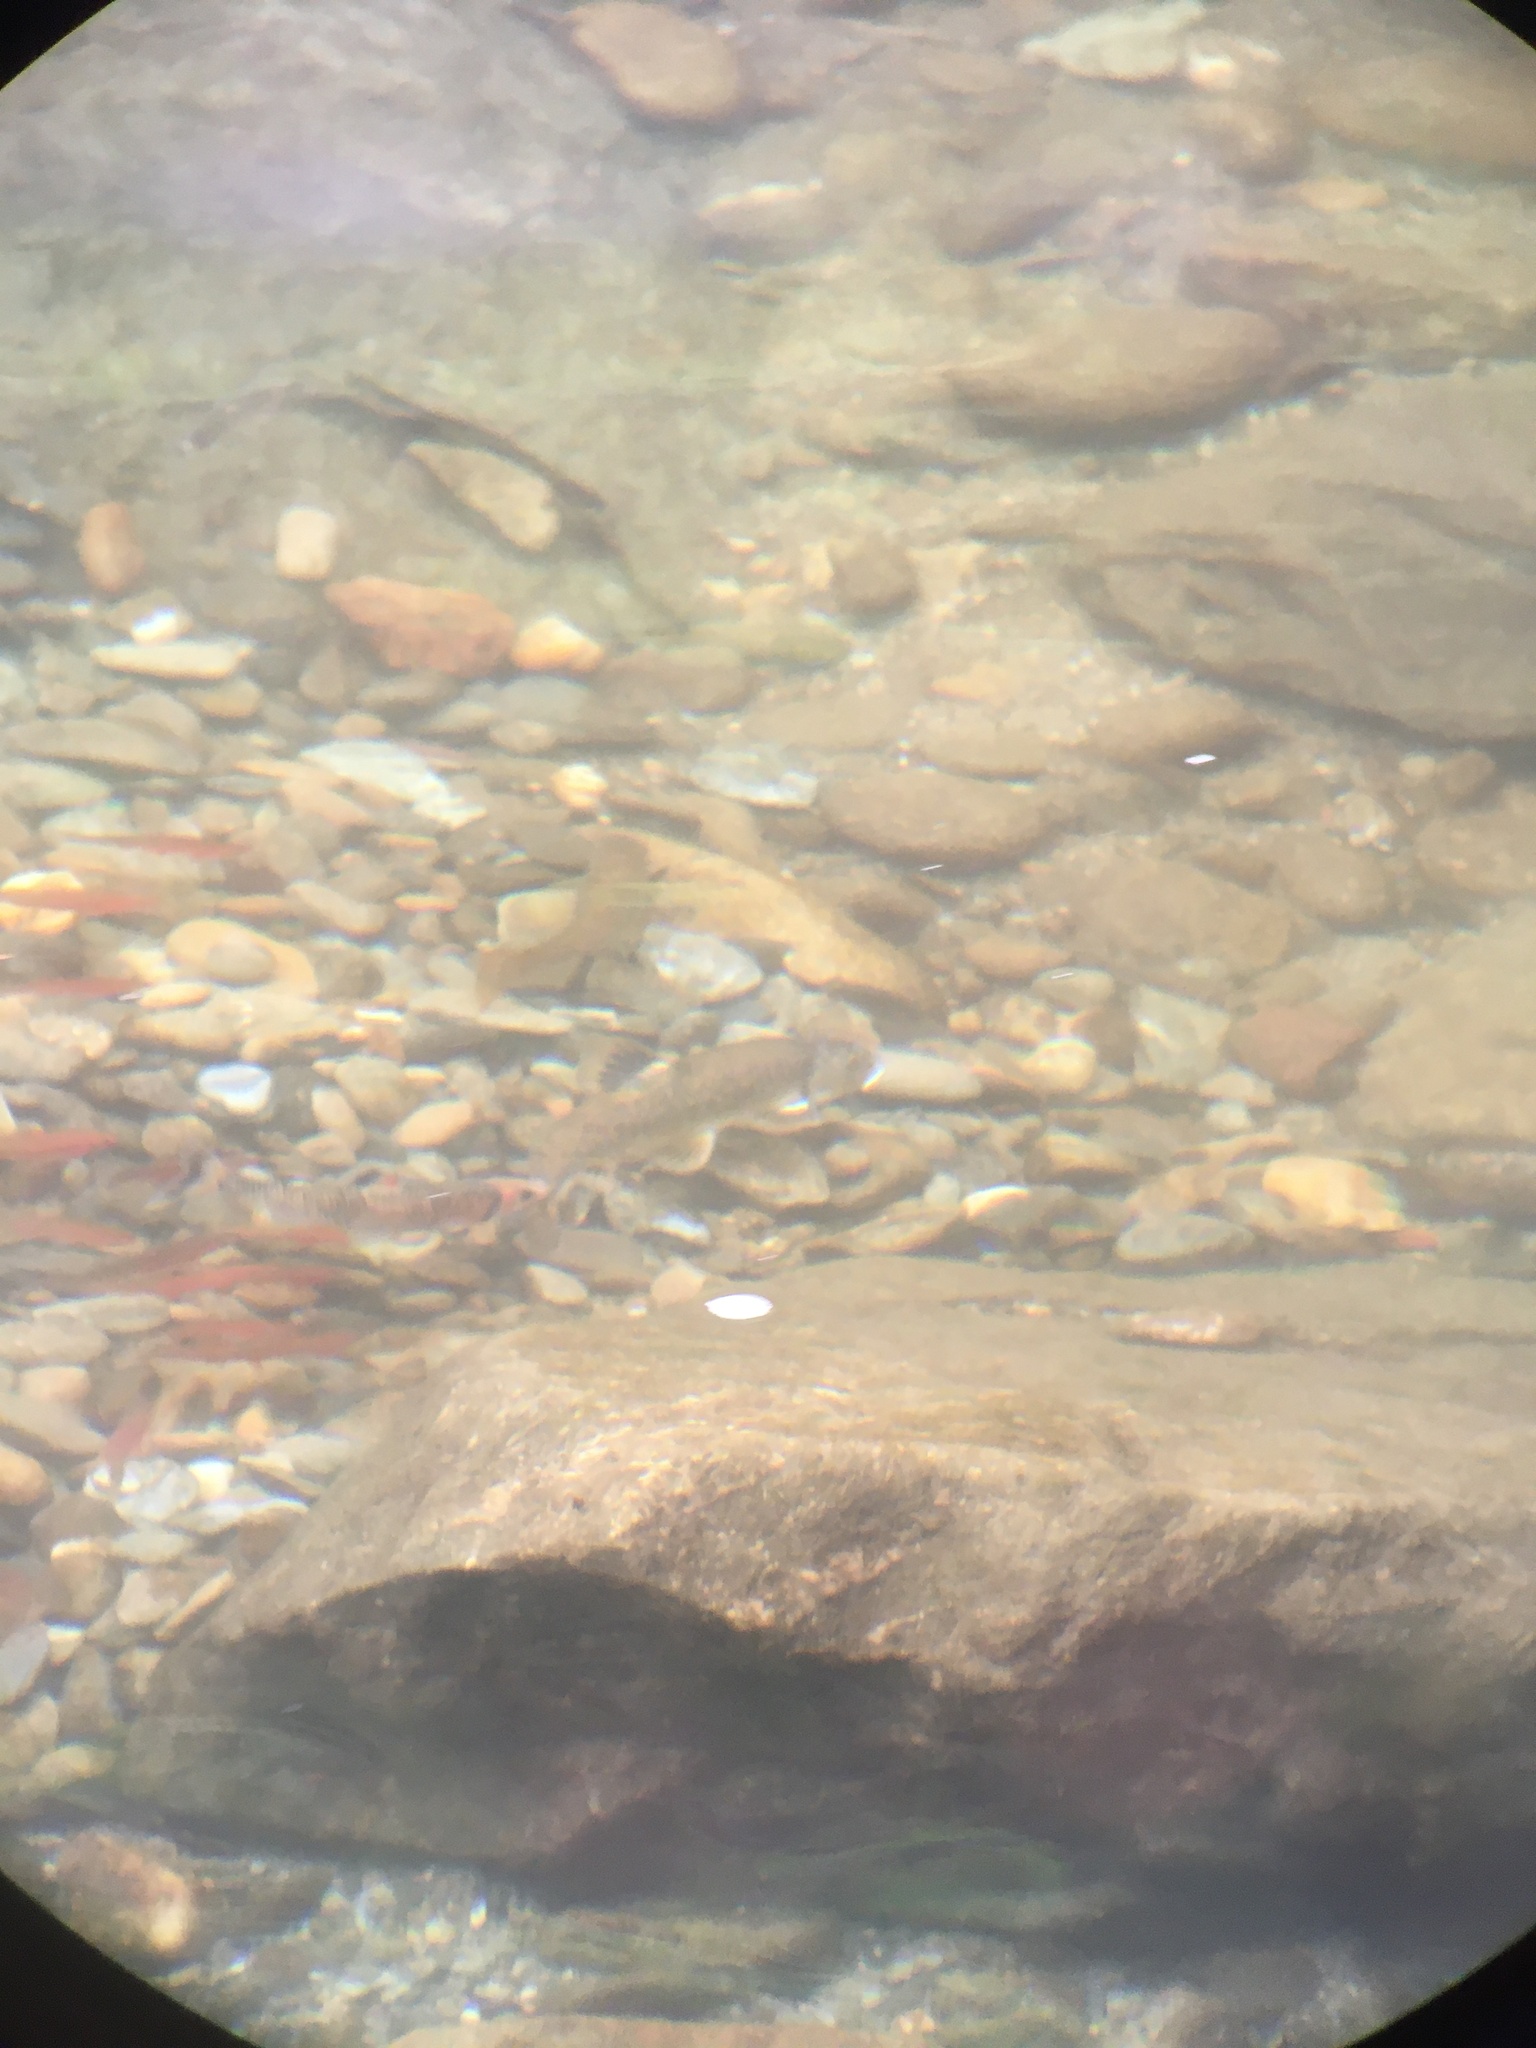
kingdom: Animalia
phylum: Chordata
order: Cypriniformes
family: Cyprinidae
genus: Campostoma
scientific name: Campostoma anomalum
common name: Central stoneroller
